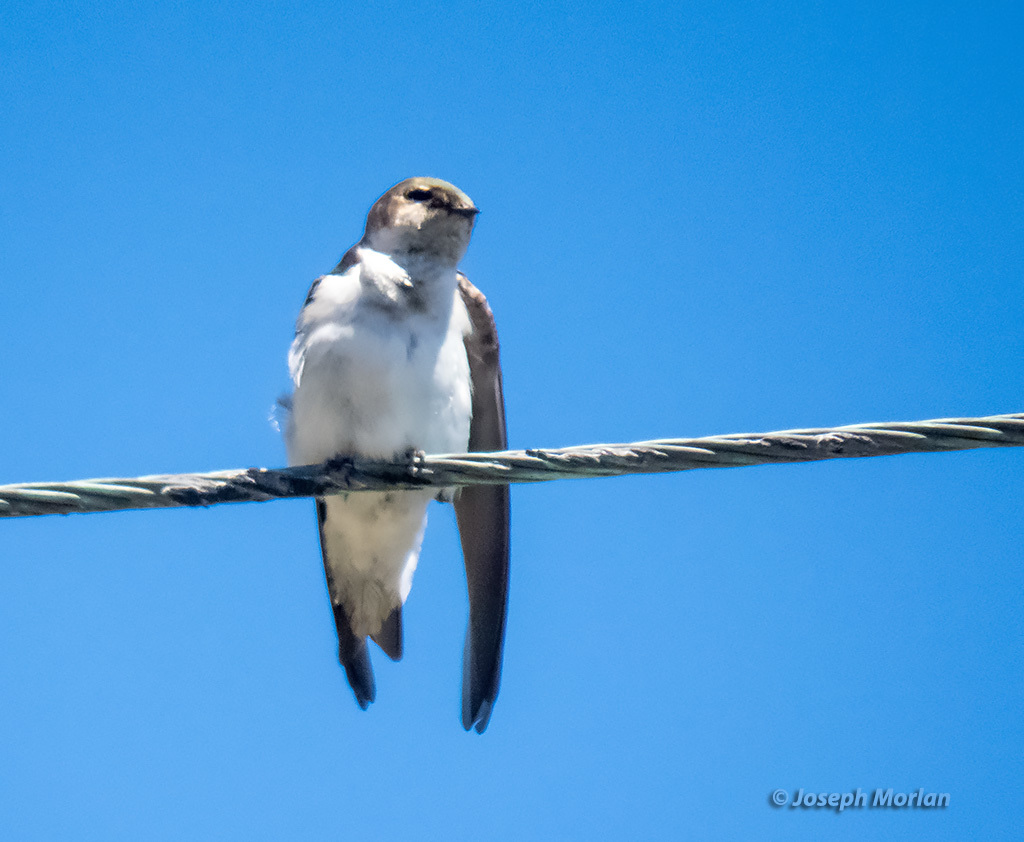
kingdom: Animalia
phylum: Chordata
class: Aves
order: Passeriformes
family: Hirundinidae
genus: Tachycineta
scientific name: Tachycineta thalassina
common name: Violet-green swallow
